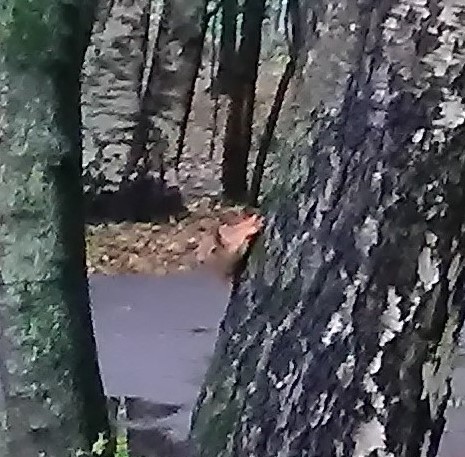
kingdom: Animalia
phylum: Chordata
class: Mammalia
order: Rodentia
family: Sciuridae
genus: Sciurus
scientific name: Sciurus vulgaris
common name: Eurasian red squirrel
